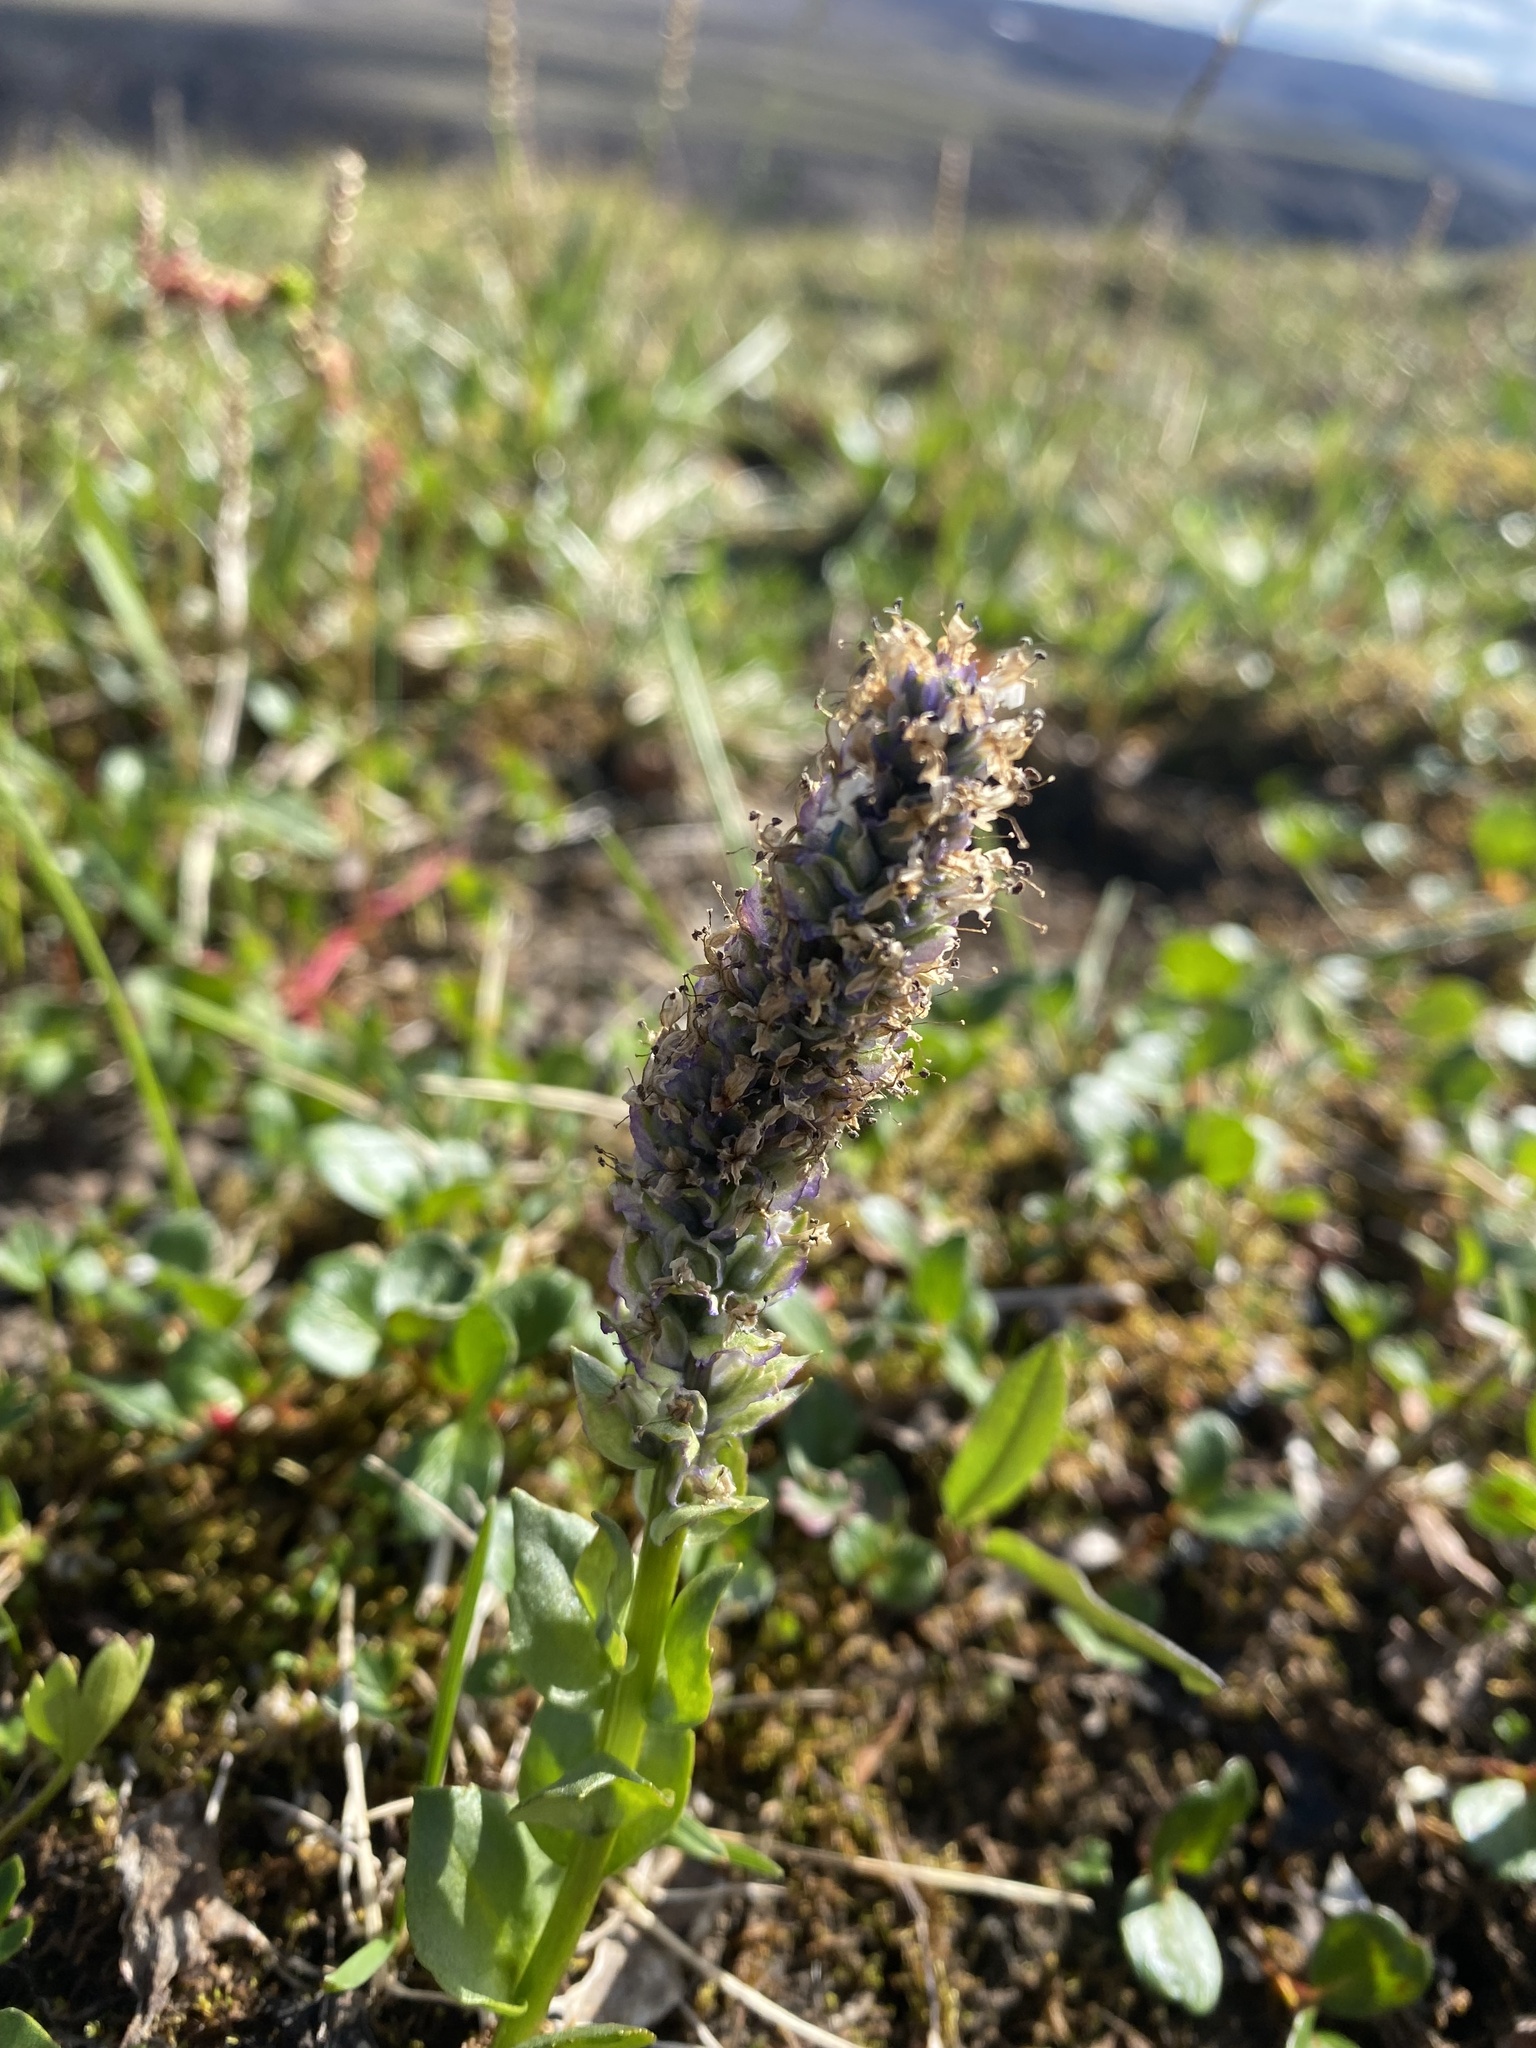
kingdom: Plantae
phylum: Tracheophyta
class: Magnoliopsida
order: Lamiales
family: Plantaginaceae
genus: Lagotis
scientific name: Lagotis glauca
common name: Glaucous weaselsnout
